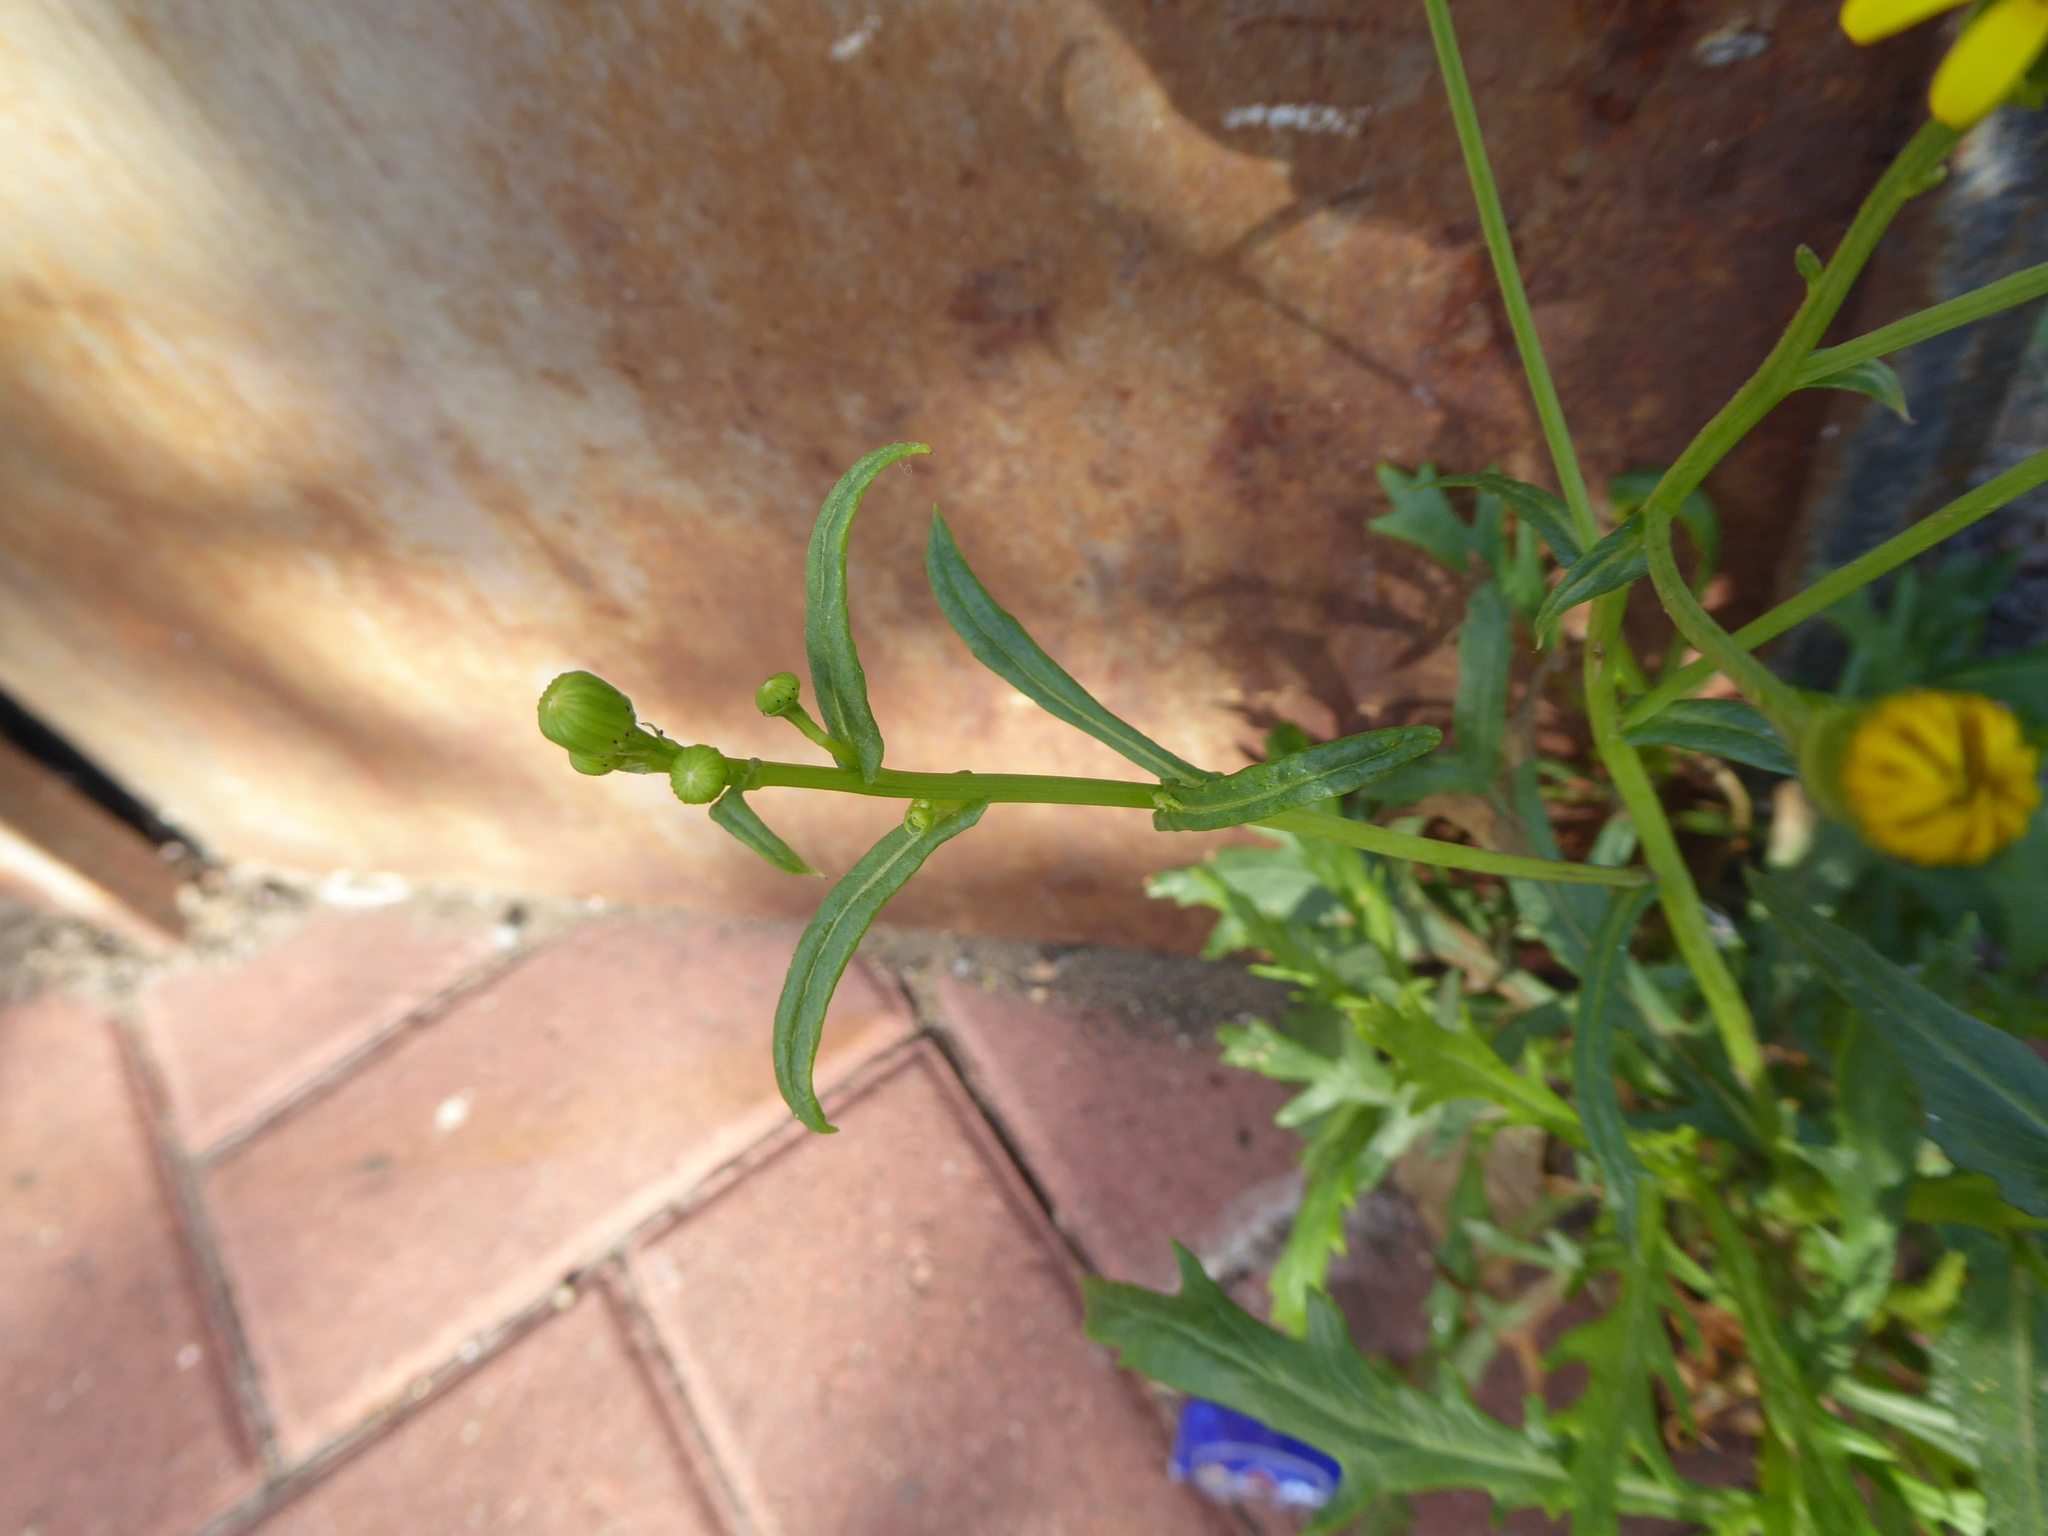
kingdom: Plantae
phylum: Tracheophyta
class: Magnoliopsida
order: Asterales
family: Asteraceae
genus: Senecio
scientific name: Senecio squalidus
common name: Oxford ragwort
